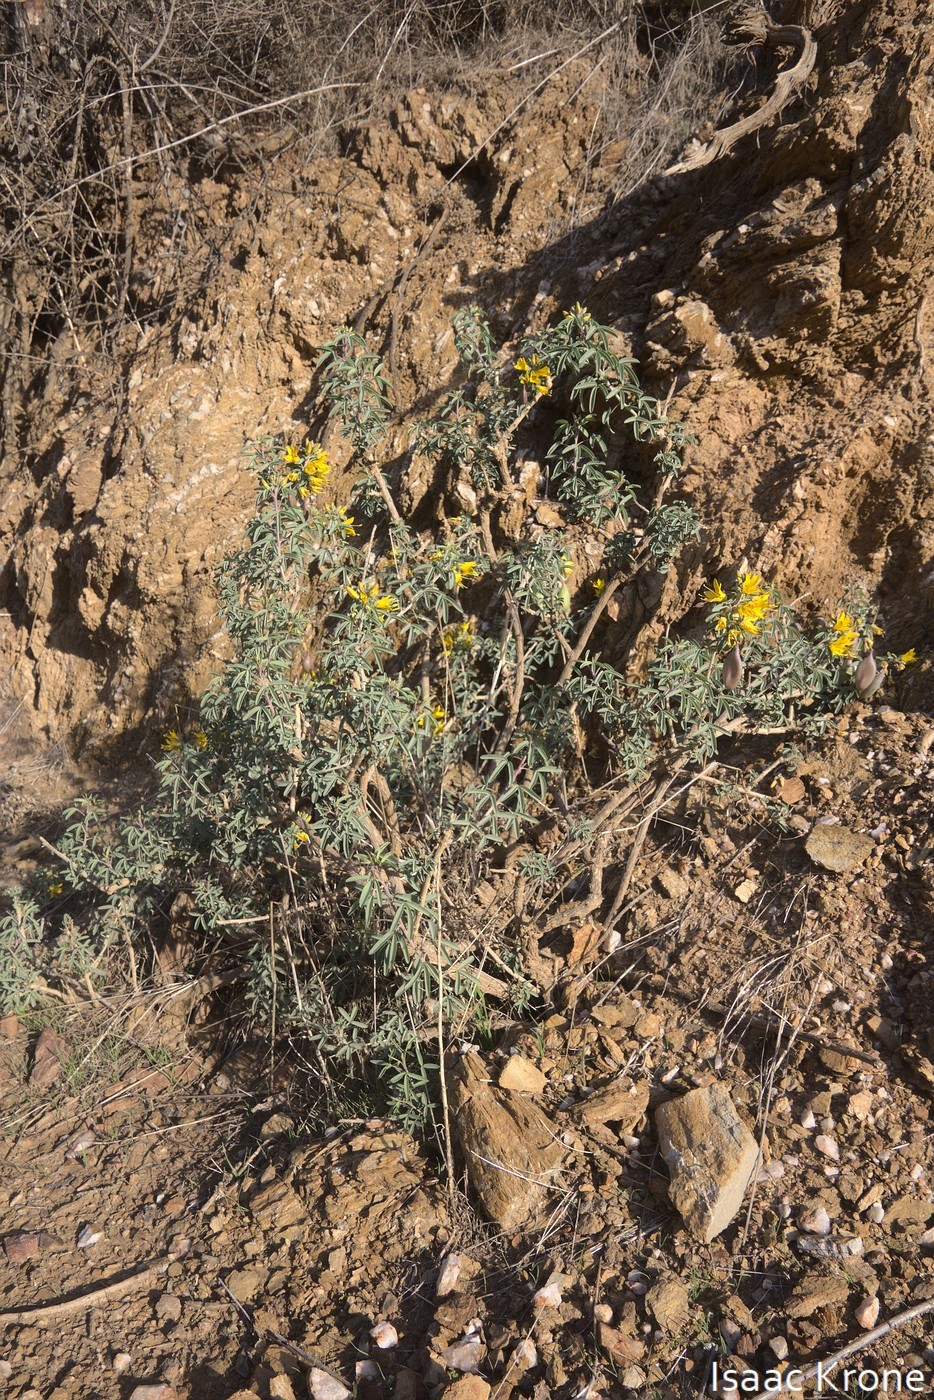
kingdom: Plantae
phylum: Tracheophyta
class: Magnoliopsida
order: Brassicales
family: Cleomaceae
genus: Cleomella
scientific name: Cleomella arborea
